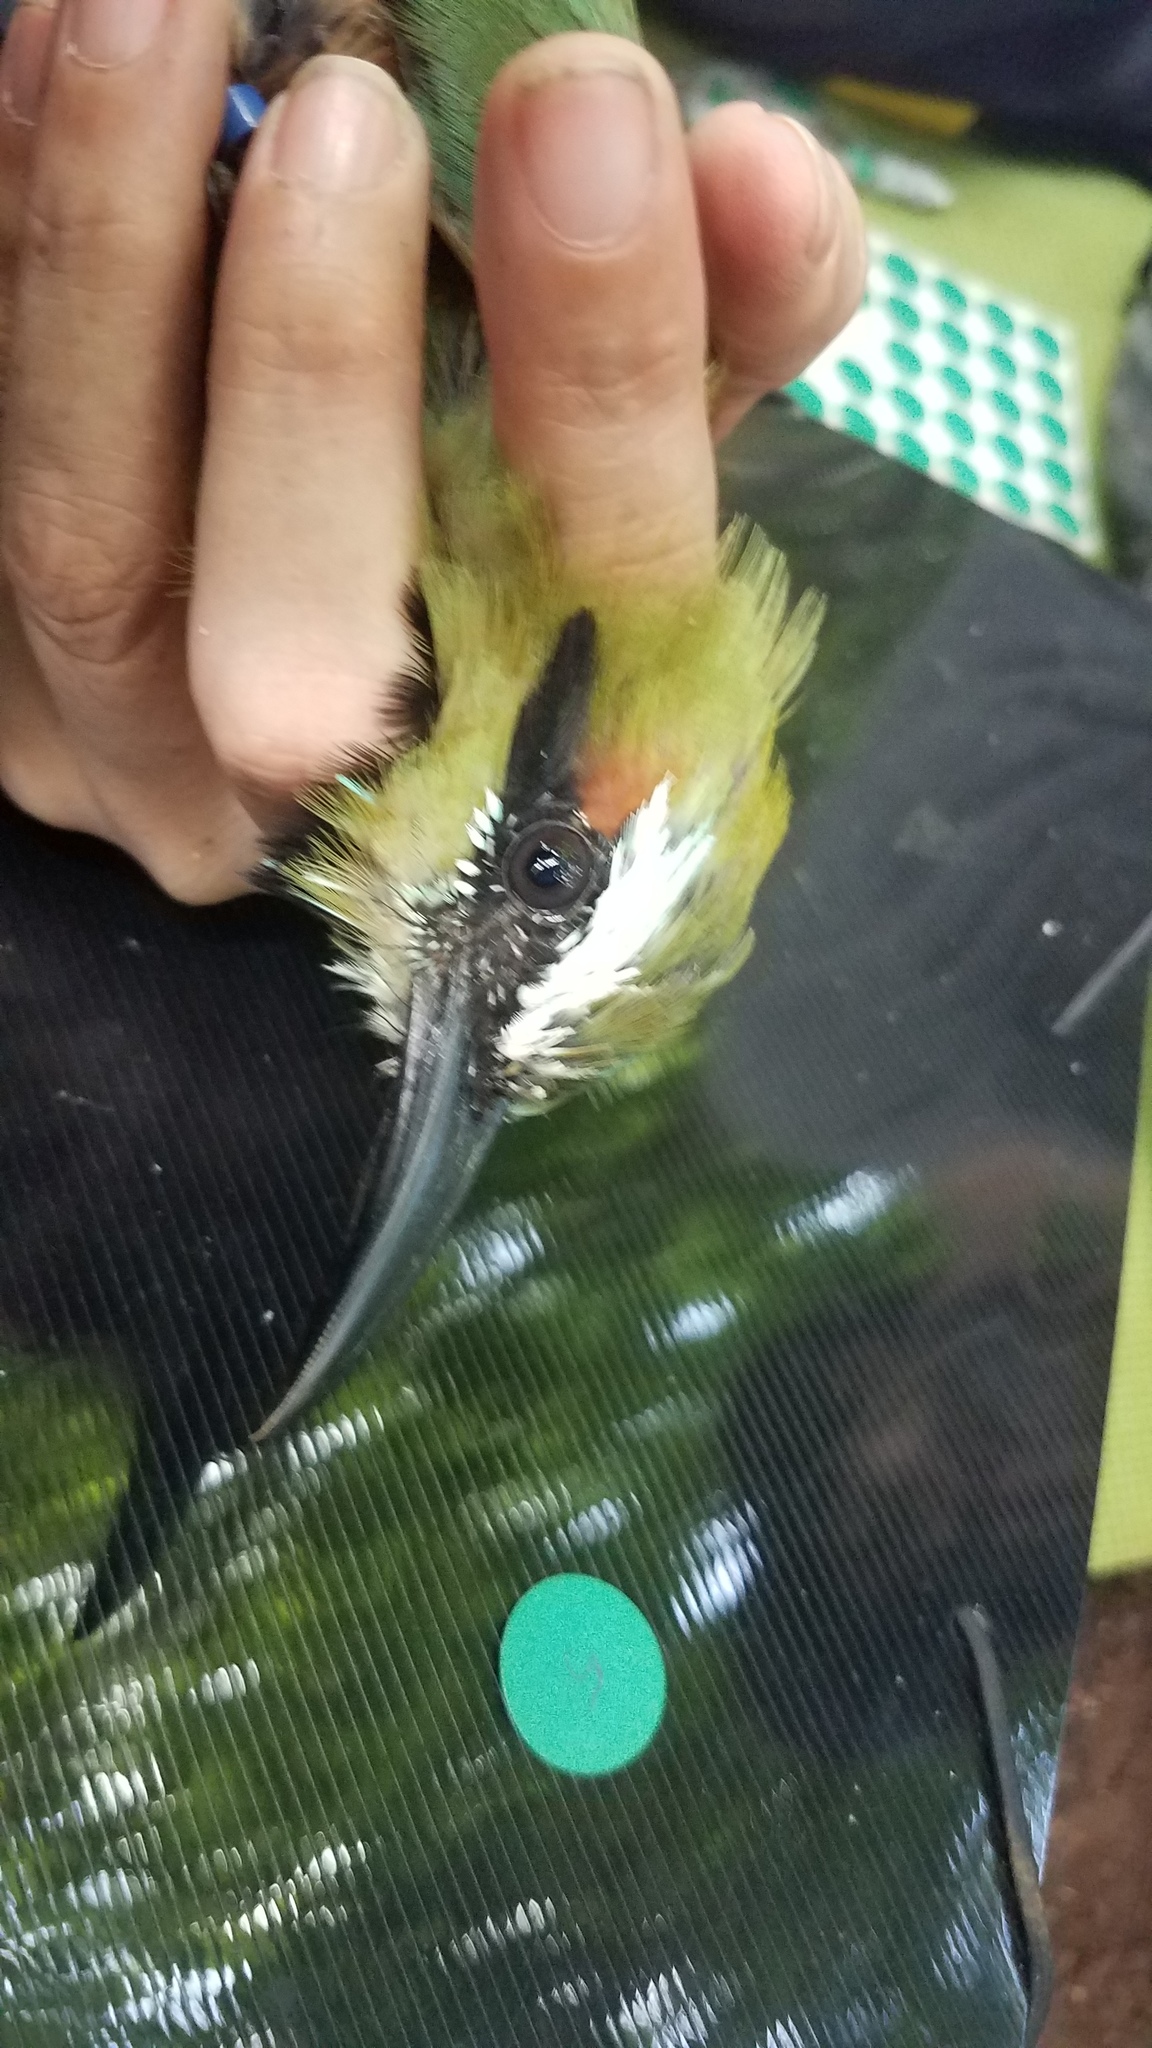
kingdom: Animalia
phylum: Chordata
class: Aves
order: Coraciiformes
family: Momotidae
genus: Eumomota
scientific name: Eumomota superciliosa
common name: Turquoise-browed motmot
